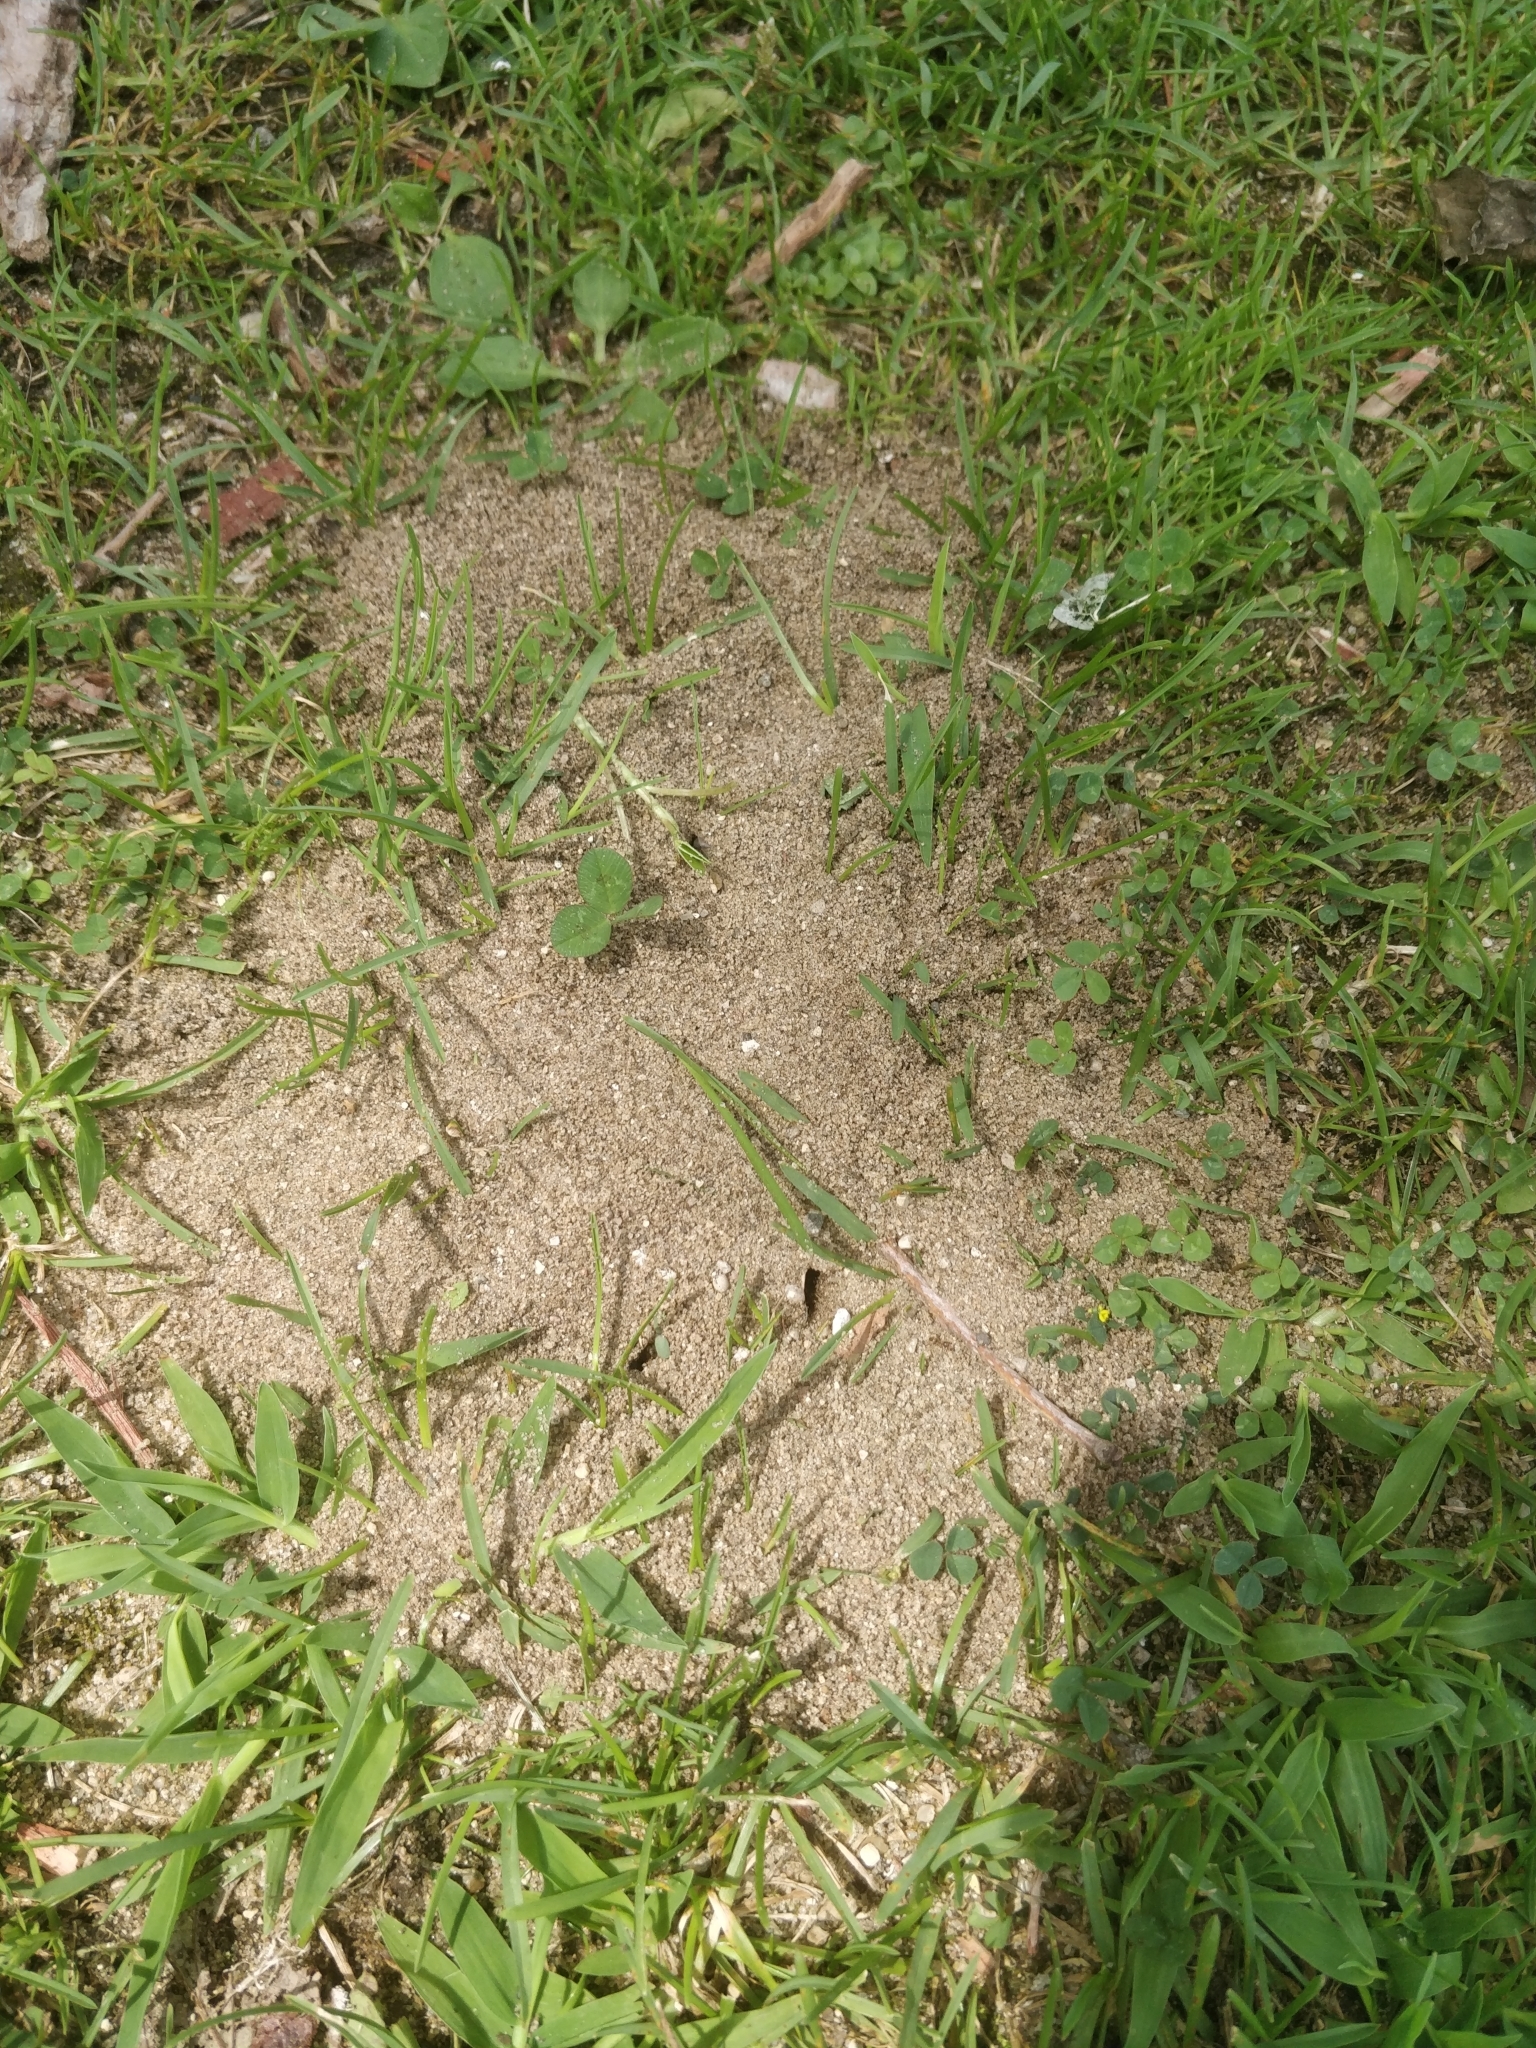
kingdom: Animalia
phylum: Arthropoda
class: Insecta
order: Hymenoptera
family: Formicidae
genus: Lasius
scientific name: Lasius neoniger
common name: Turfgrass ant
